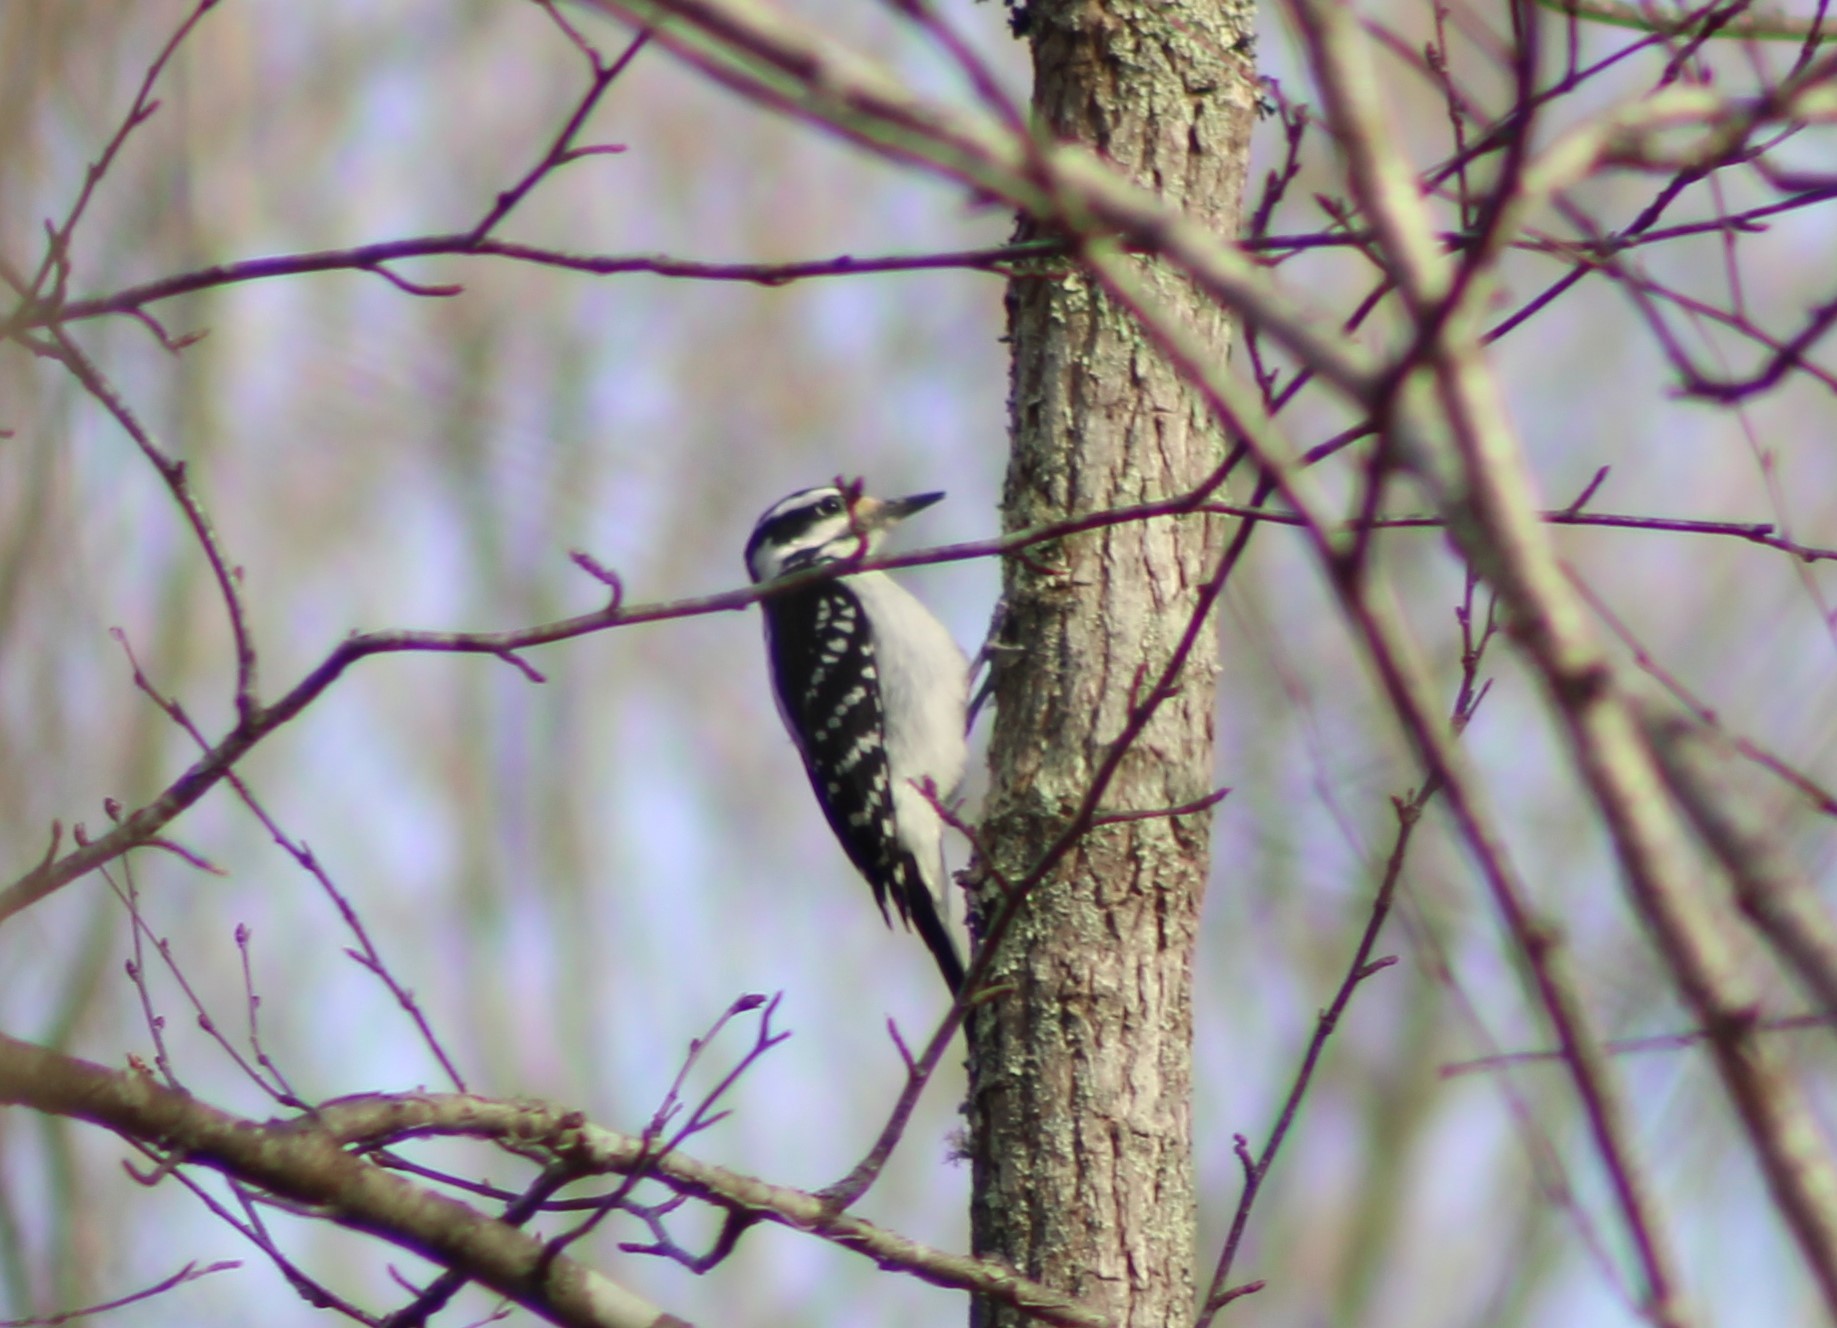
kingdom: Animalia
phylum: Chordata
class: Aves
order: Piciformes
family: Picidae
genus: Leuconotopicus
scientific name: Leuconotopicus villosus
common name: Hairy woodpecker
